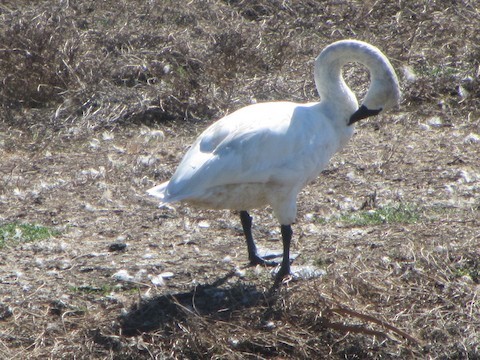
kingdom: Animalia
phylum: Chordata
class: Aves
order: Anseriformes
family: Anatidae
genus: Cygnus
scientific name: Cygnus columbianus
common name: Tundra swan
